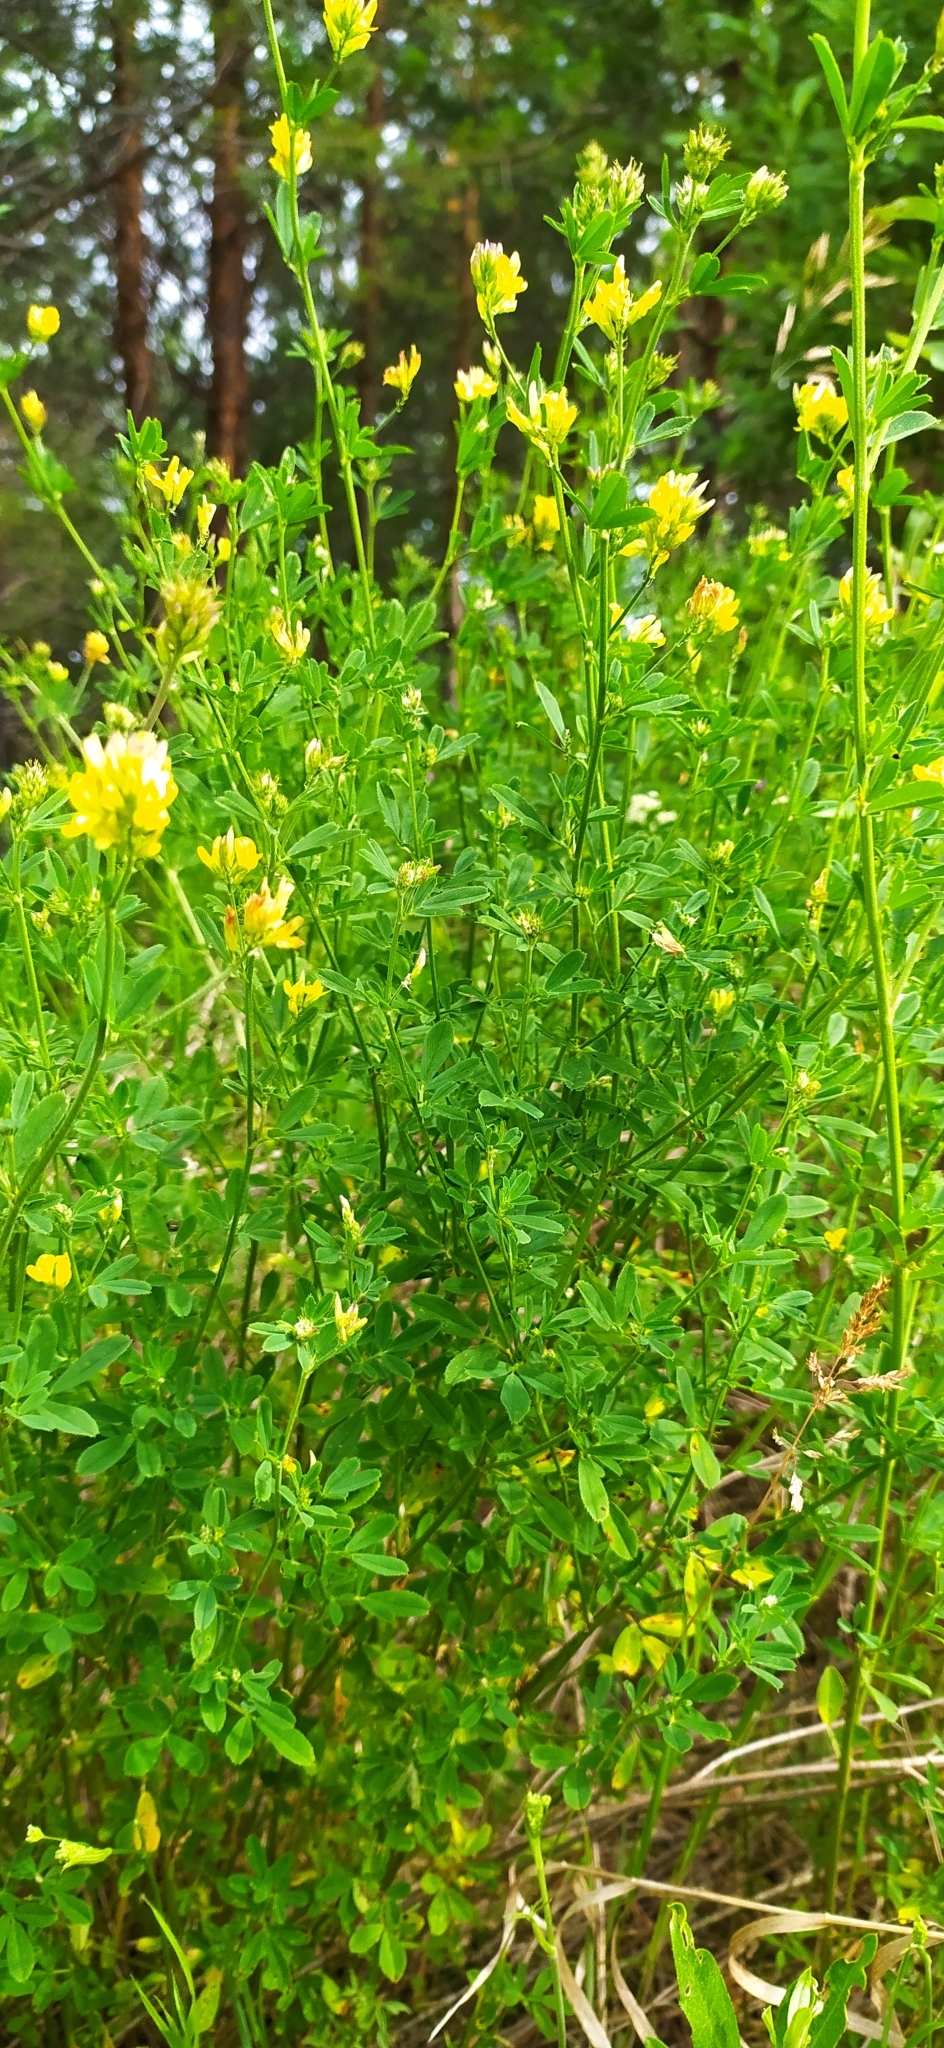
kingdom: Plantae
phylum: Tracheophyta
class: Magnoliopsida
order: Fabales
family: Fabaceae
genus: Medicago
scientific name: Medicago falcata
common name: Sickle medick
